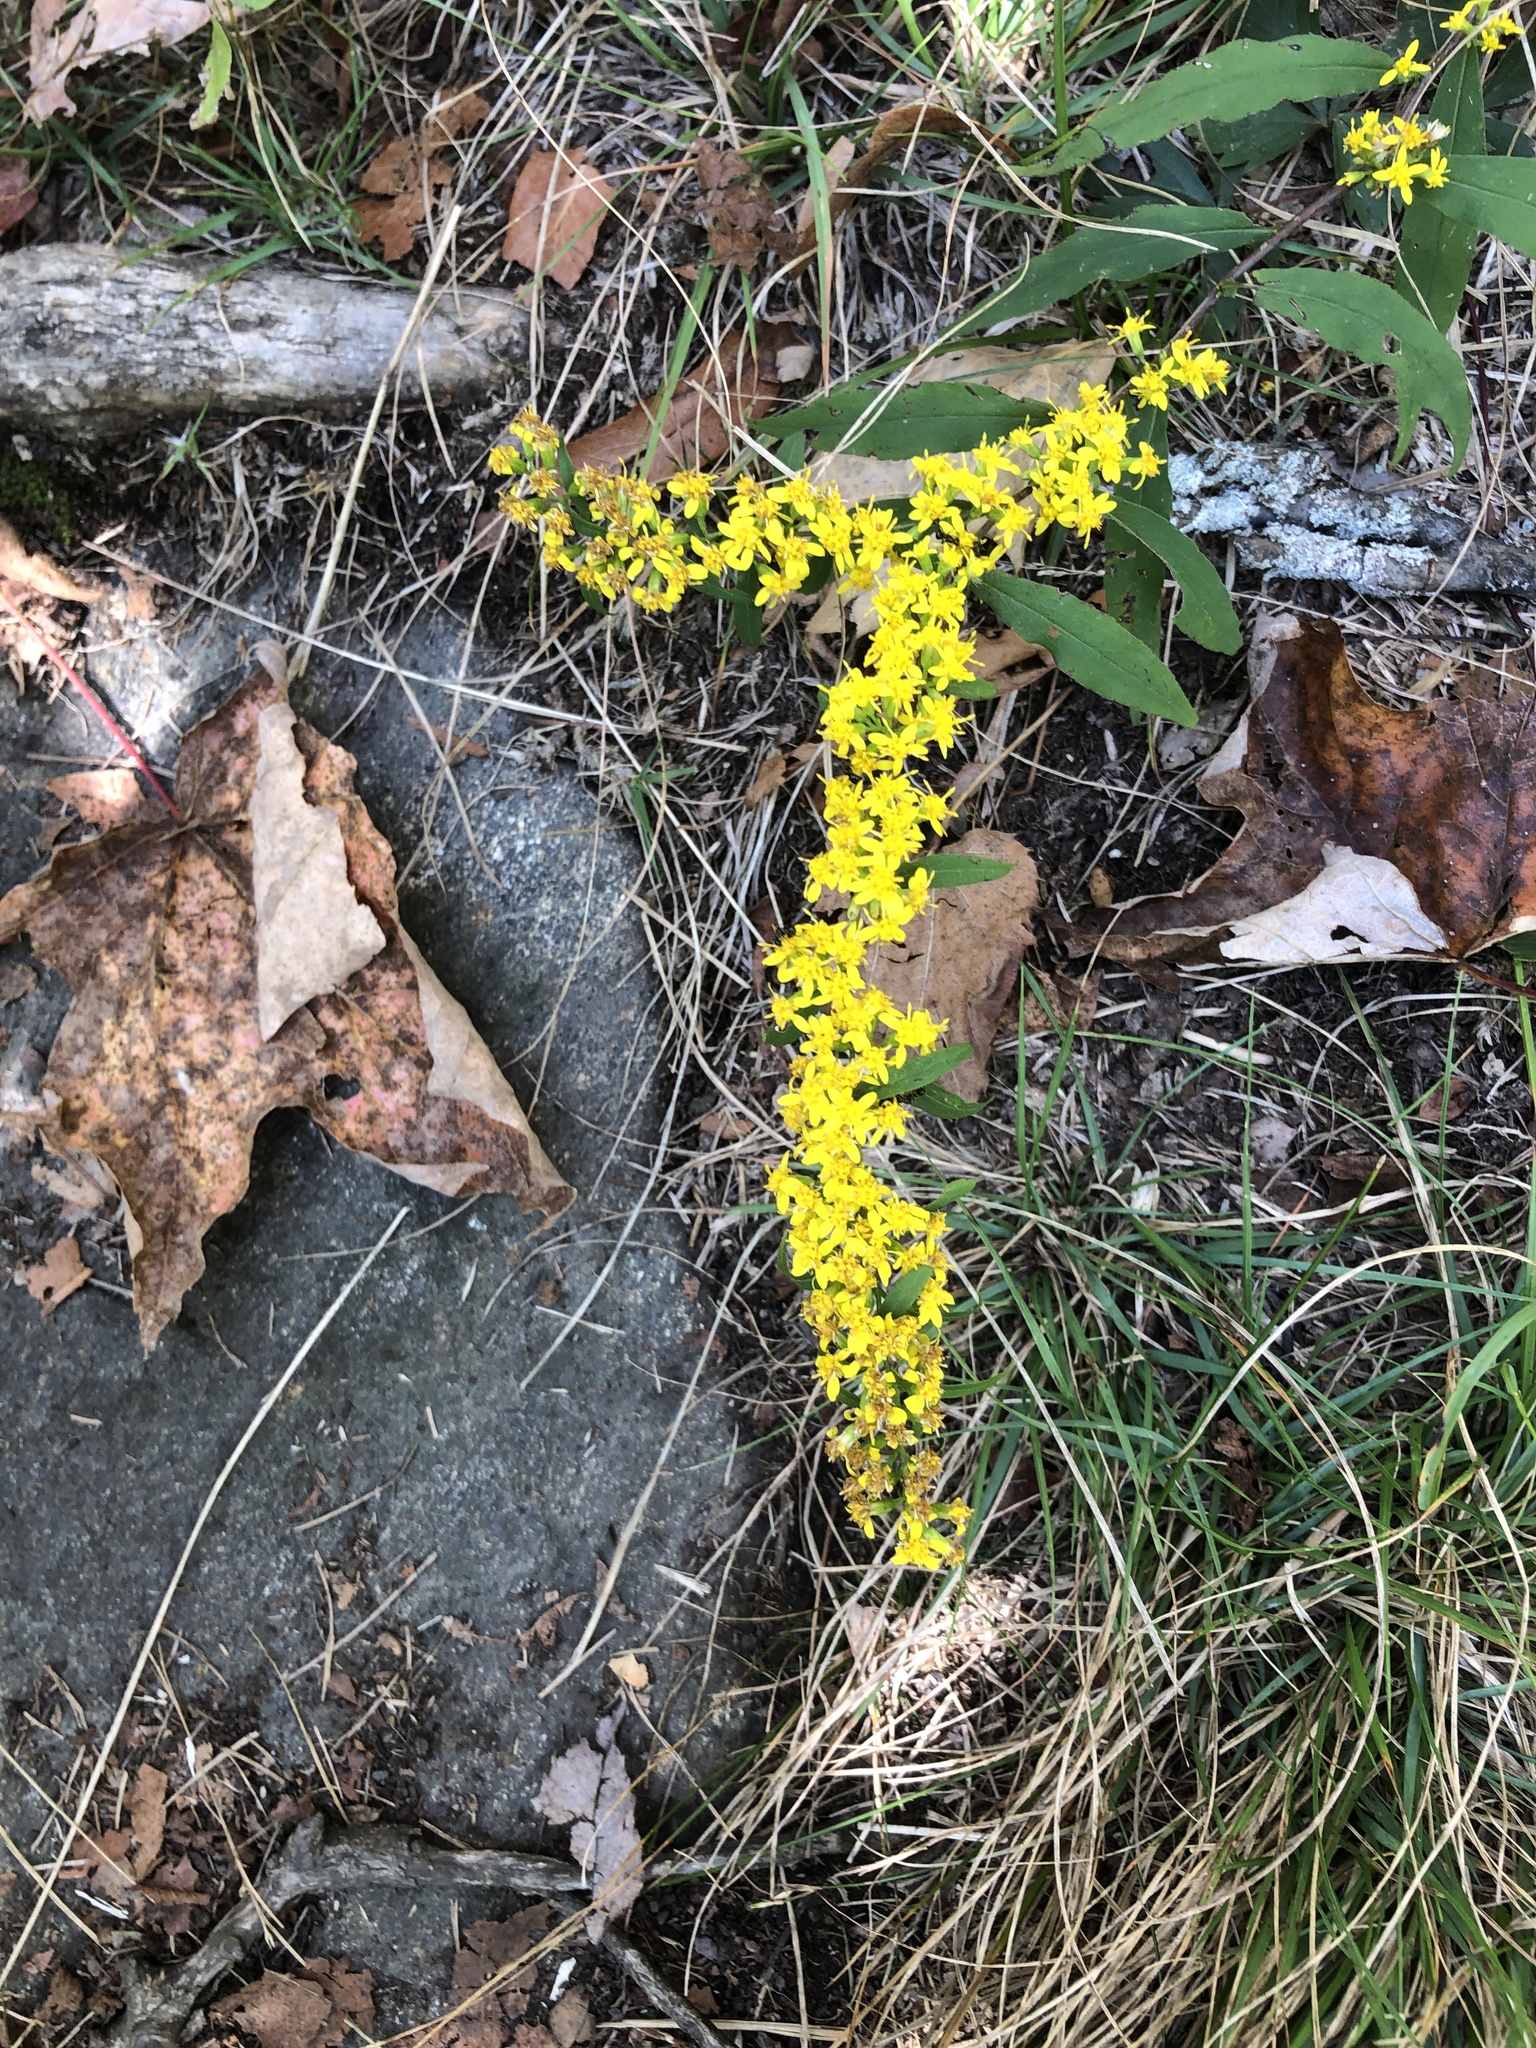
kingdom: Plantae
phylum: Tracheophyta
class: Magnoliopsida
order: Asterales
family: Asteraceae
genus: Solidago
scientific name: Solidago caesia
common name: Woodland goldenrod
